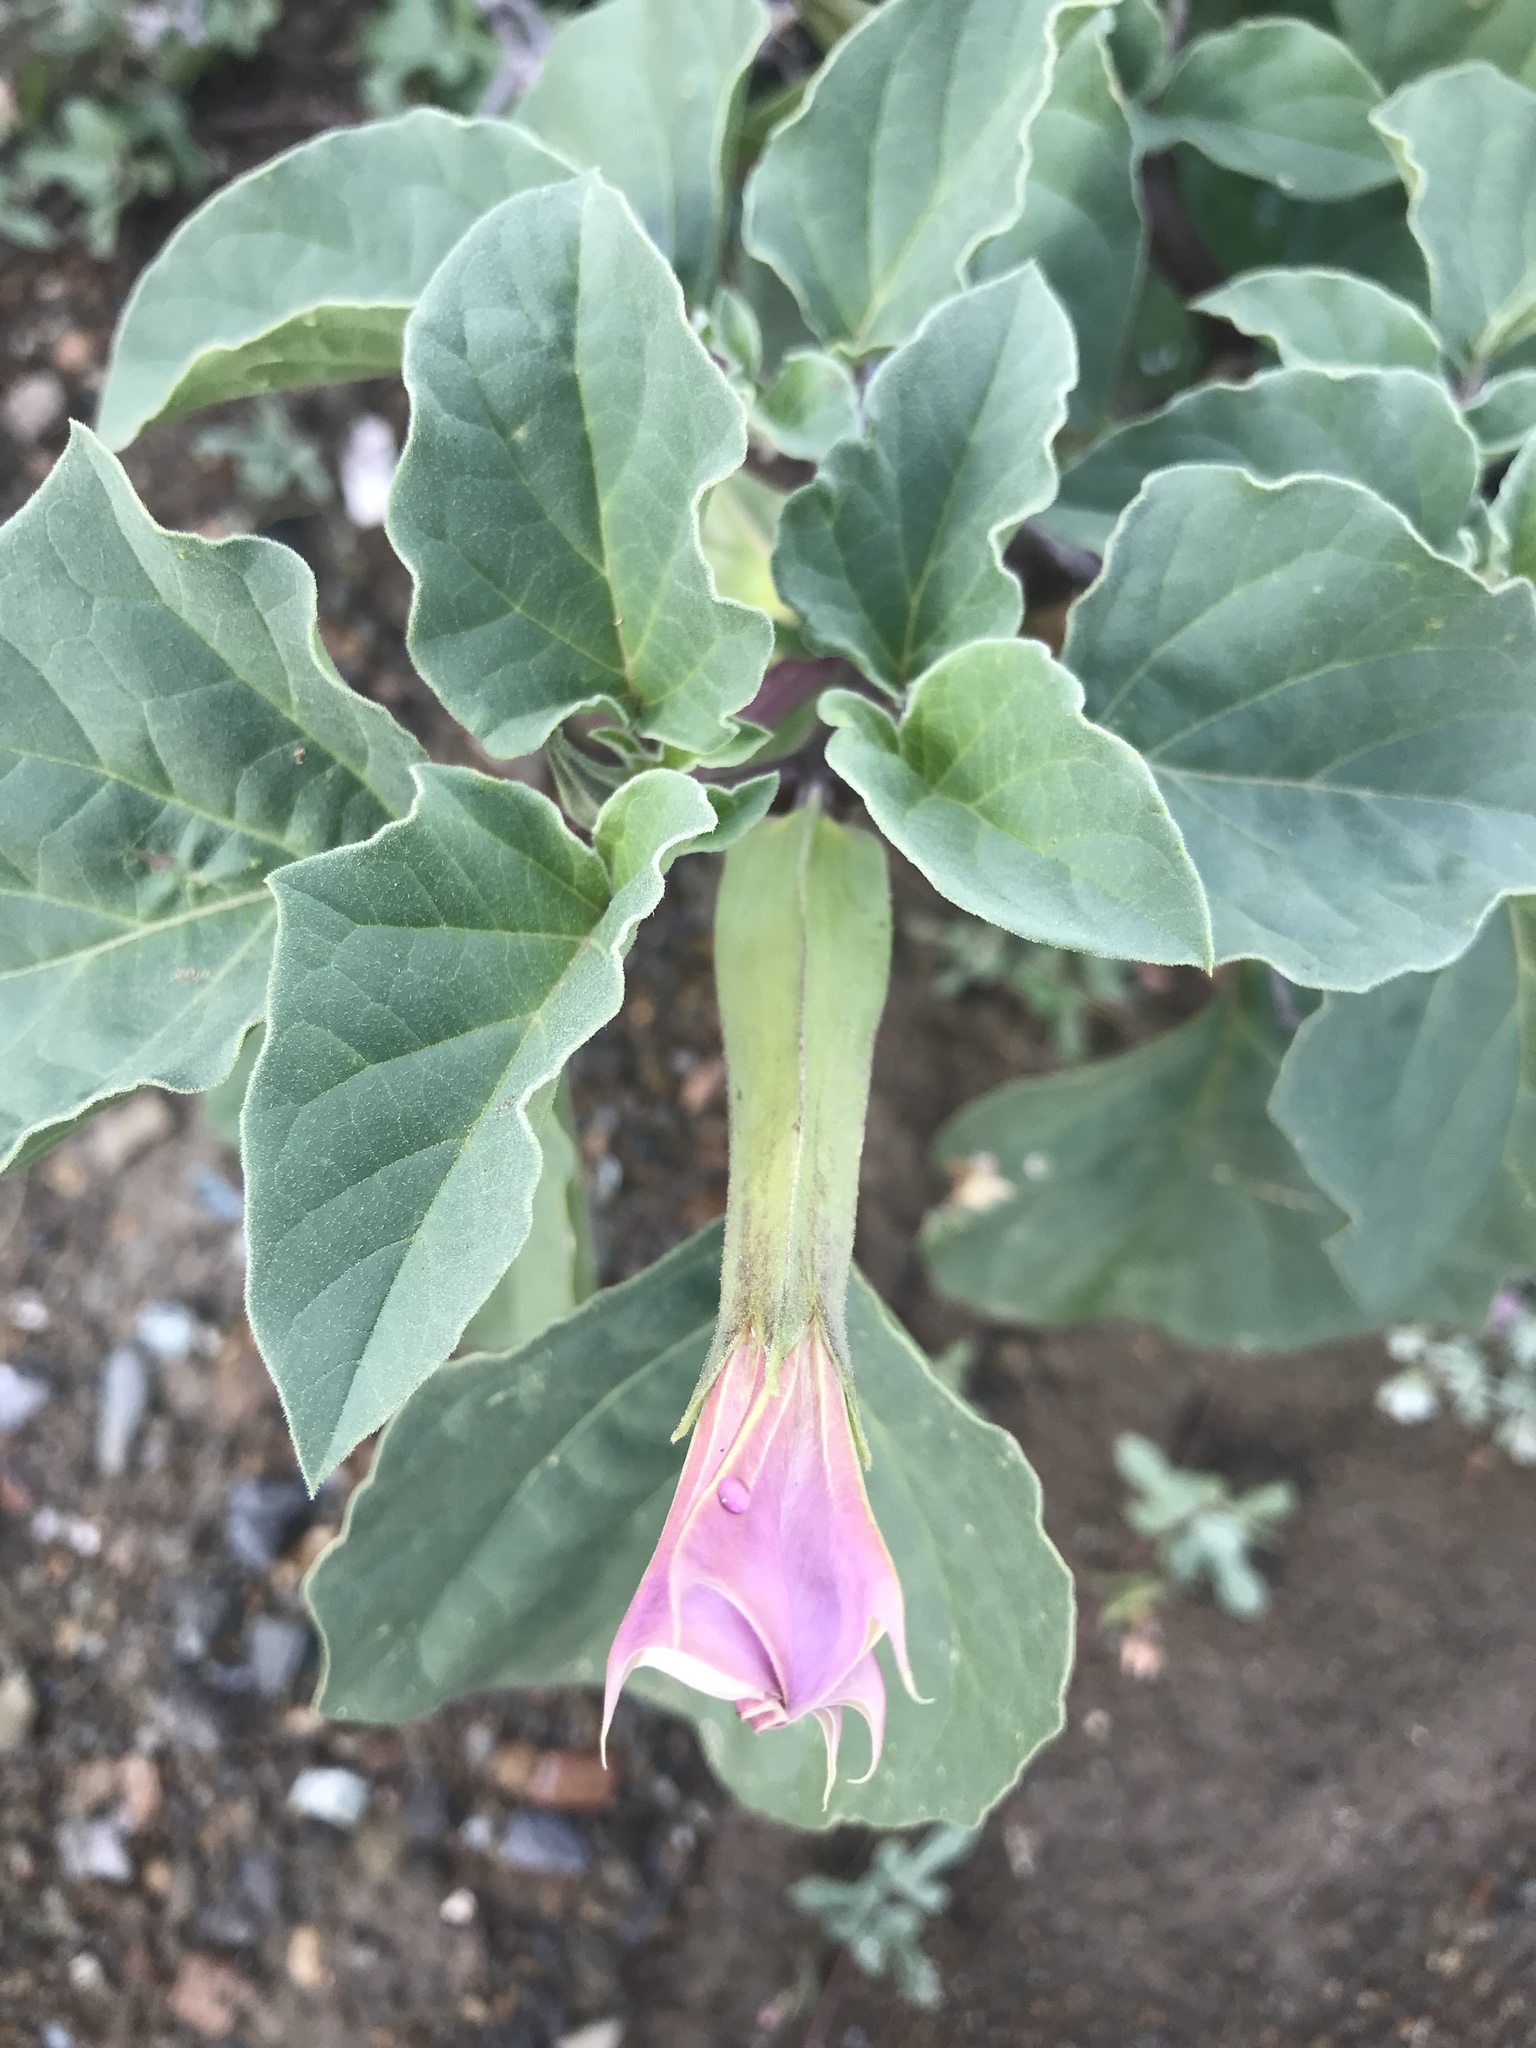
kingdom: Plantae
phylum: Tracheophyta
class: Magnoliopsida
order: Solanales
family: Solanaceae
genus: Datura
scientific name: Datura discolor
